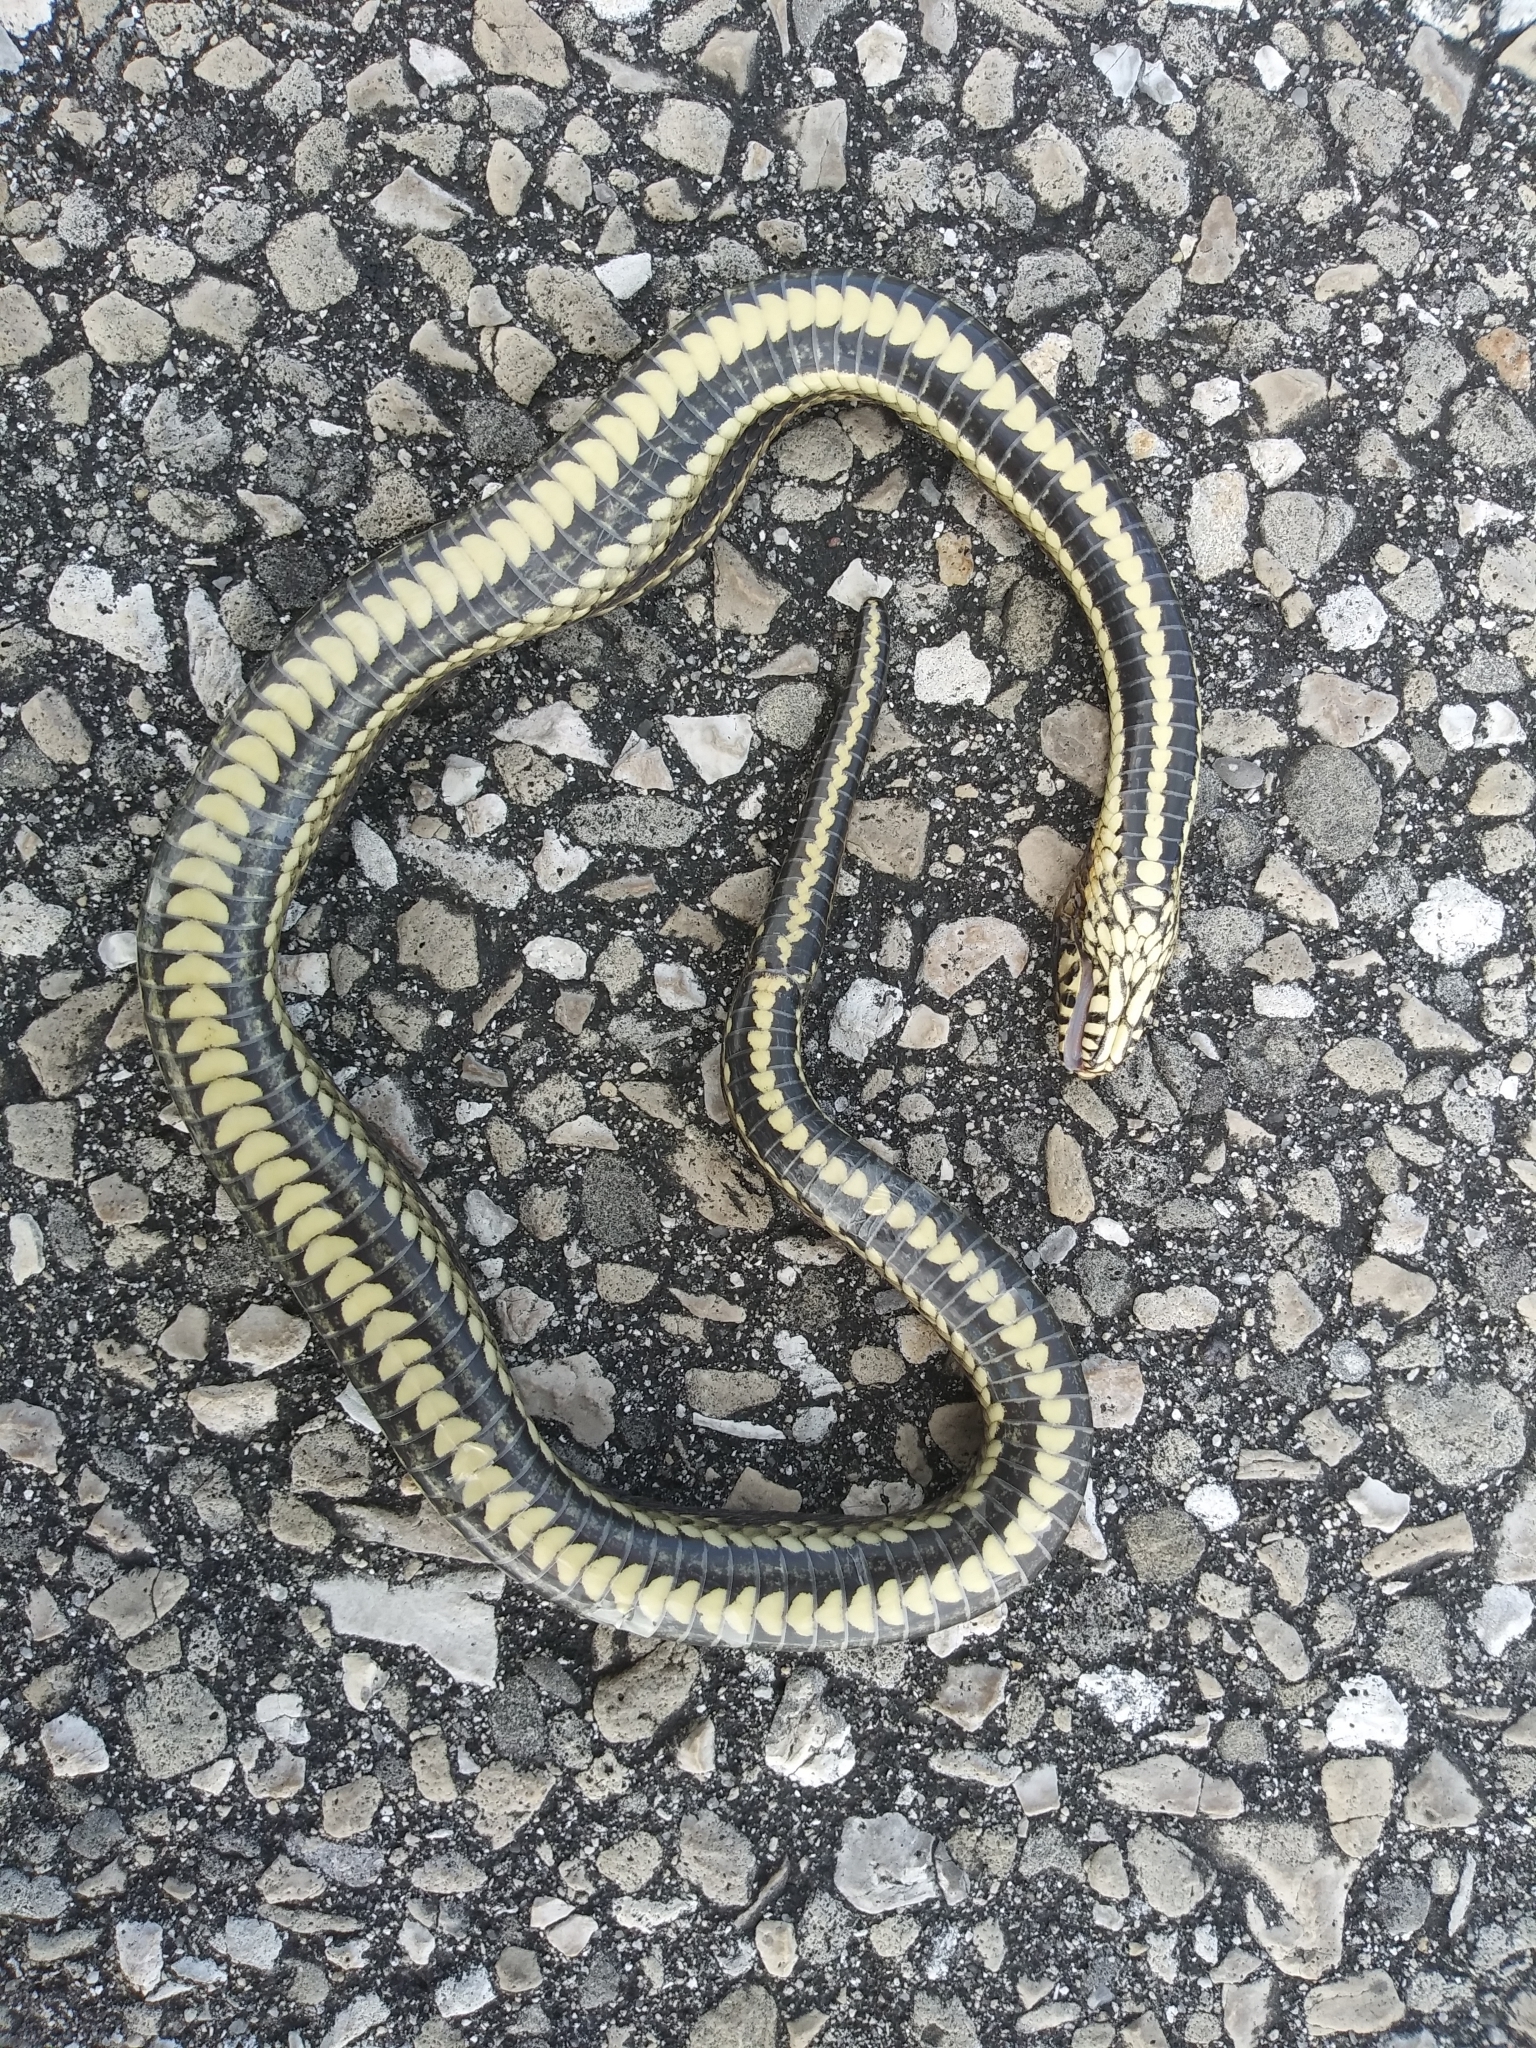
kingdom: Animalia
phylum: Chordata
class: Squamata
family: Colubridae
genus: Nerodia
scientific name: Nerodia clarkii
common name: Atlantic saltmarsh snake
